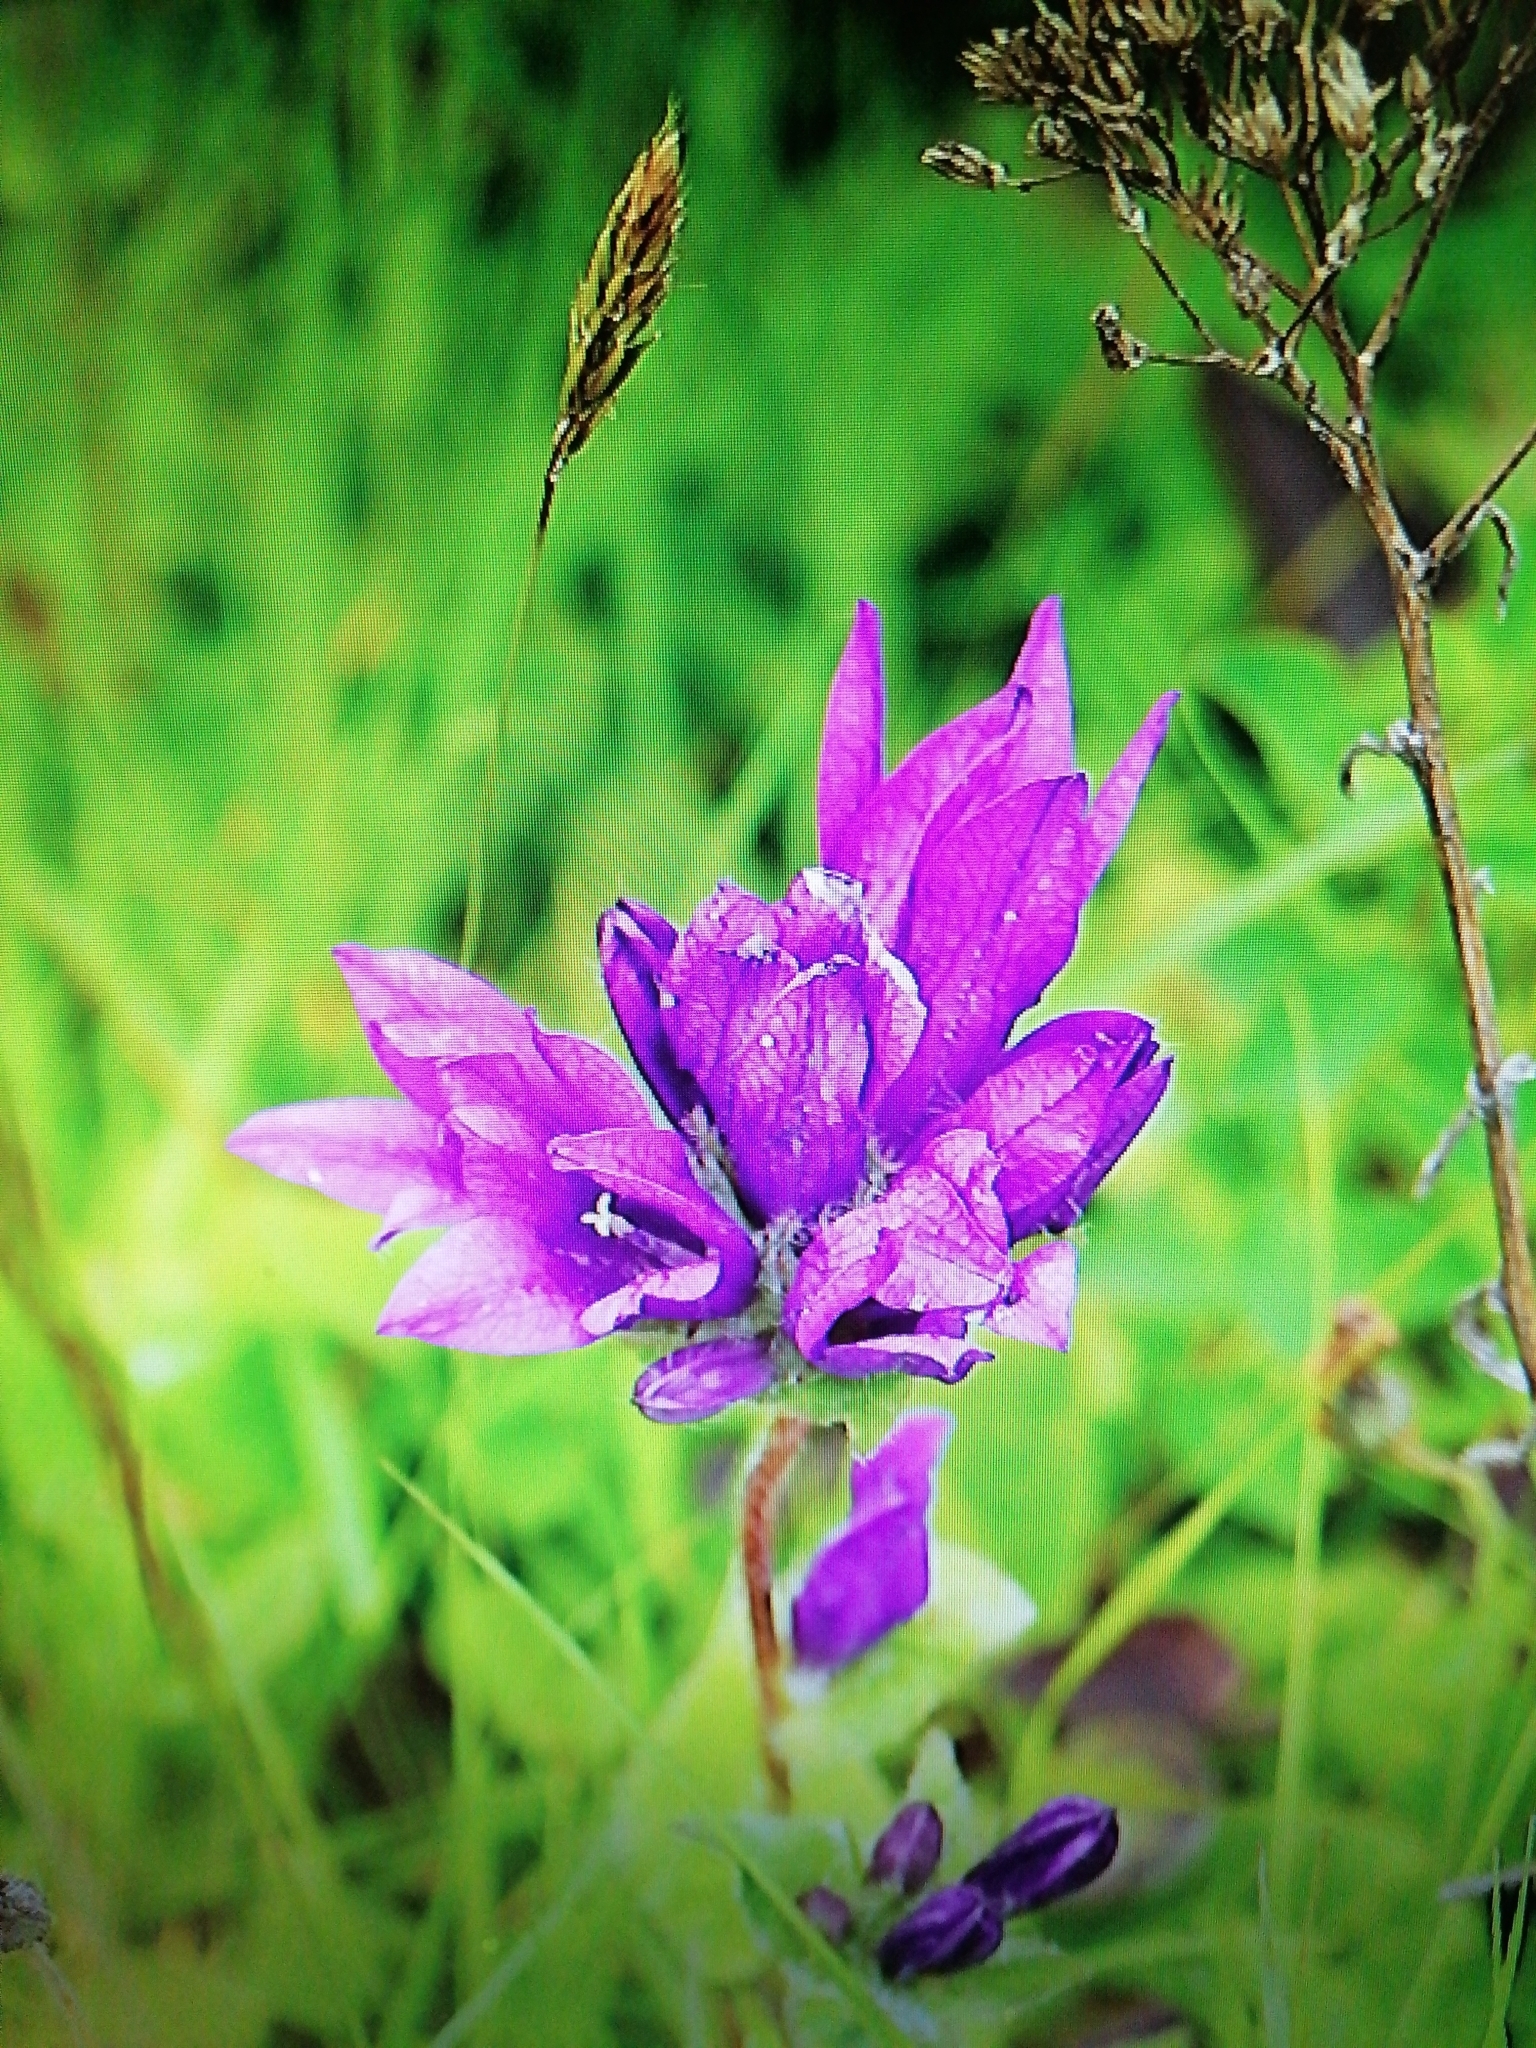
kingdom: Plantae
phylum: Tracheophyta
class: Magnoliopsida
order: Asterales
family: Campanulaceae
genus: Campanula
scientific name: Campanula glomerata
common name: Clustered bellflower
